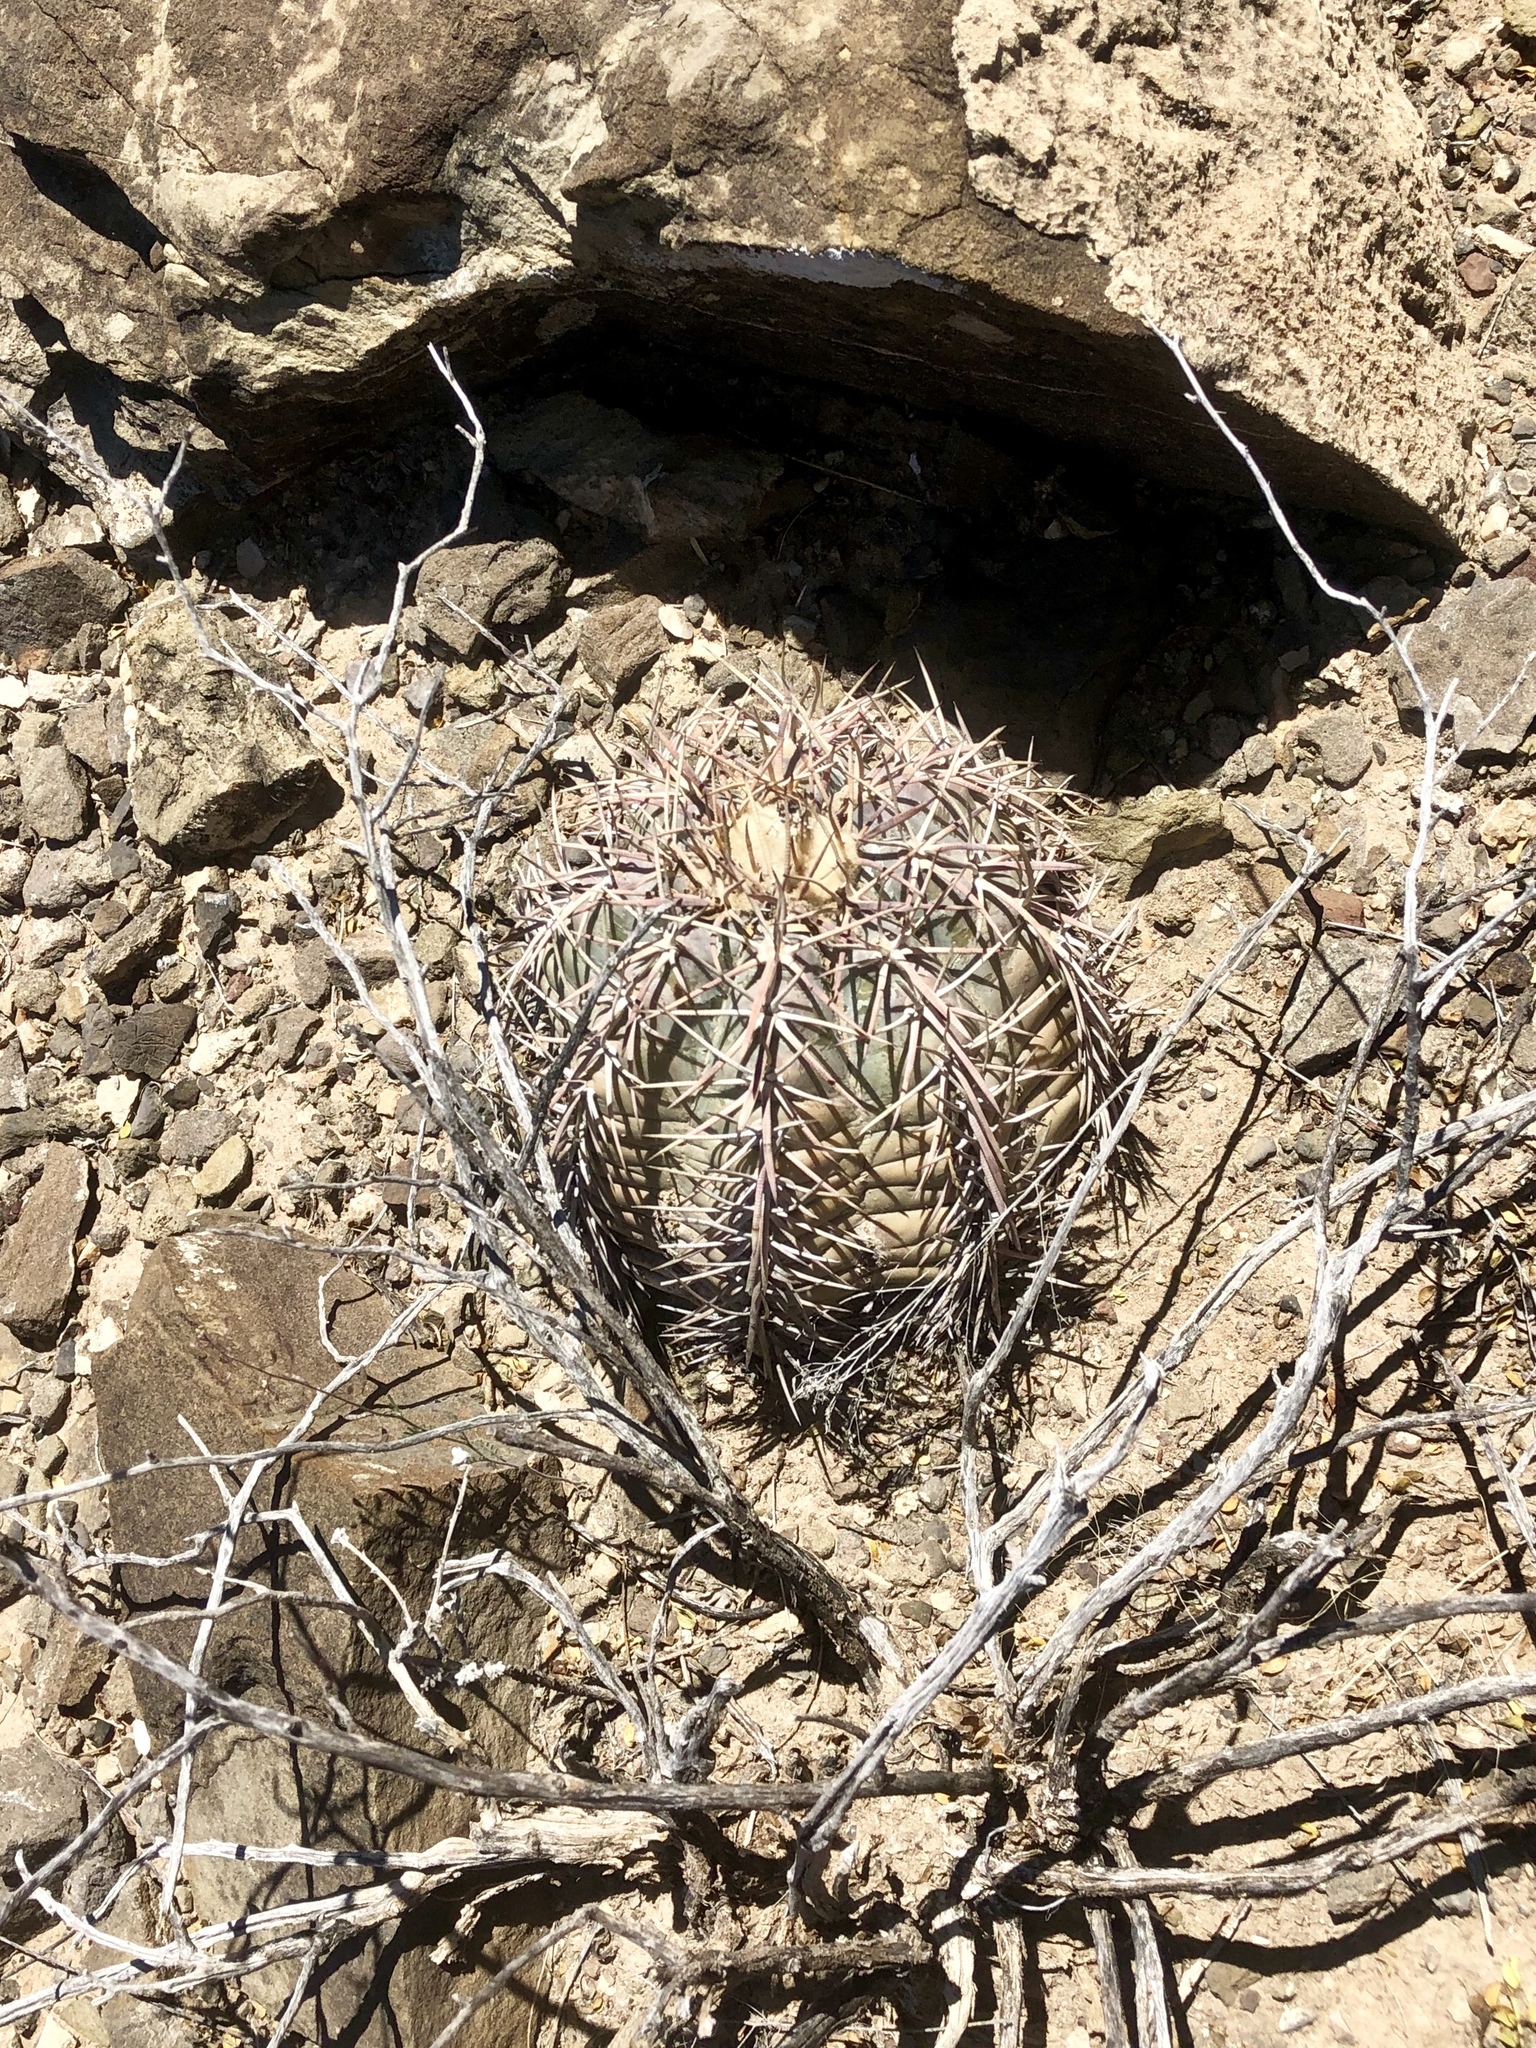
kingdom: Plantae
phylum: Tracheophyta
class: Magnoliopsida
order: Caryophyllales
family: Cactaceae
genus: Echinocactus
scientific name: Echinocactus horizonthalonius
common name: Devilshead
